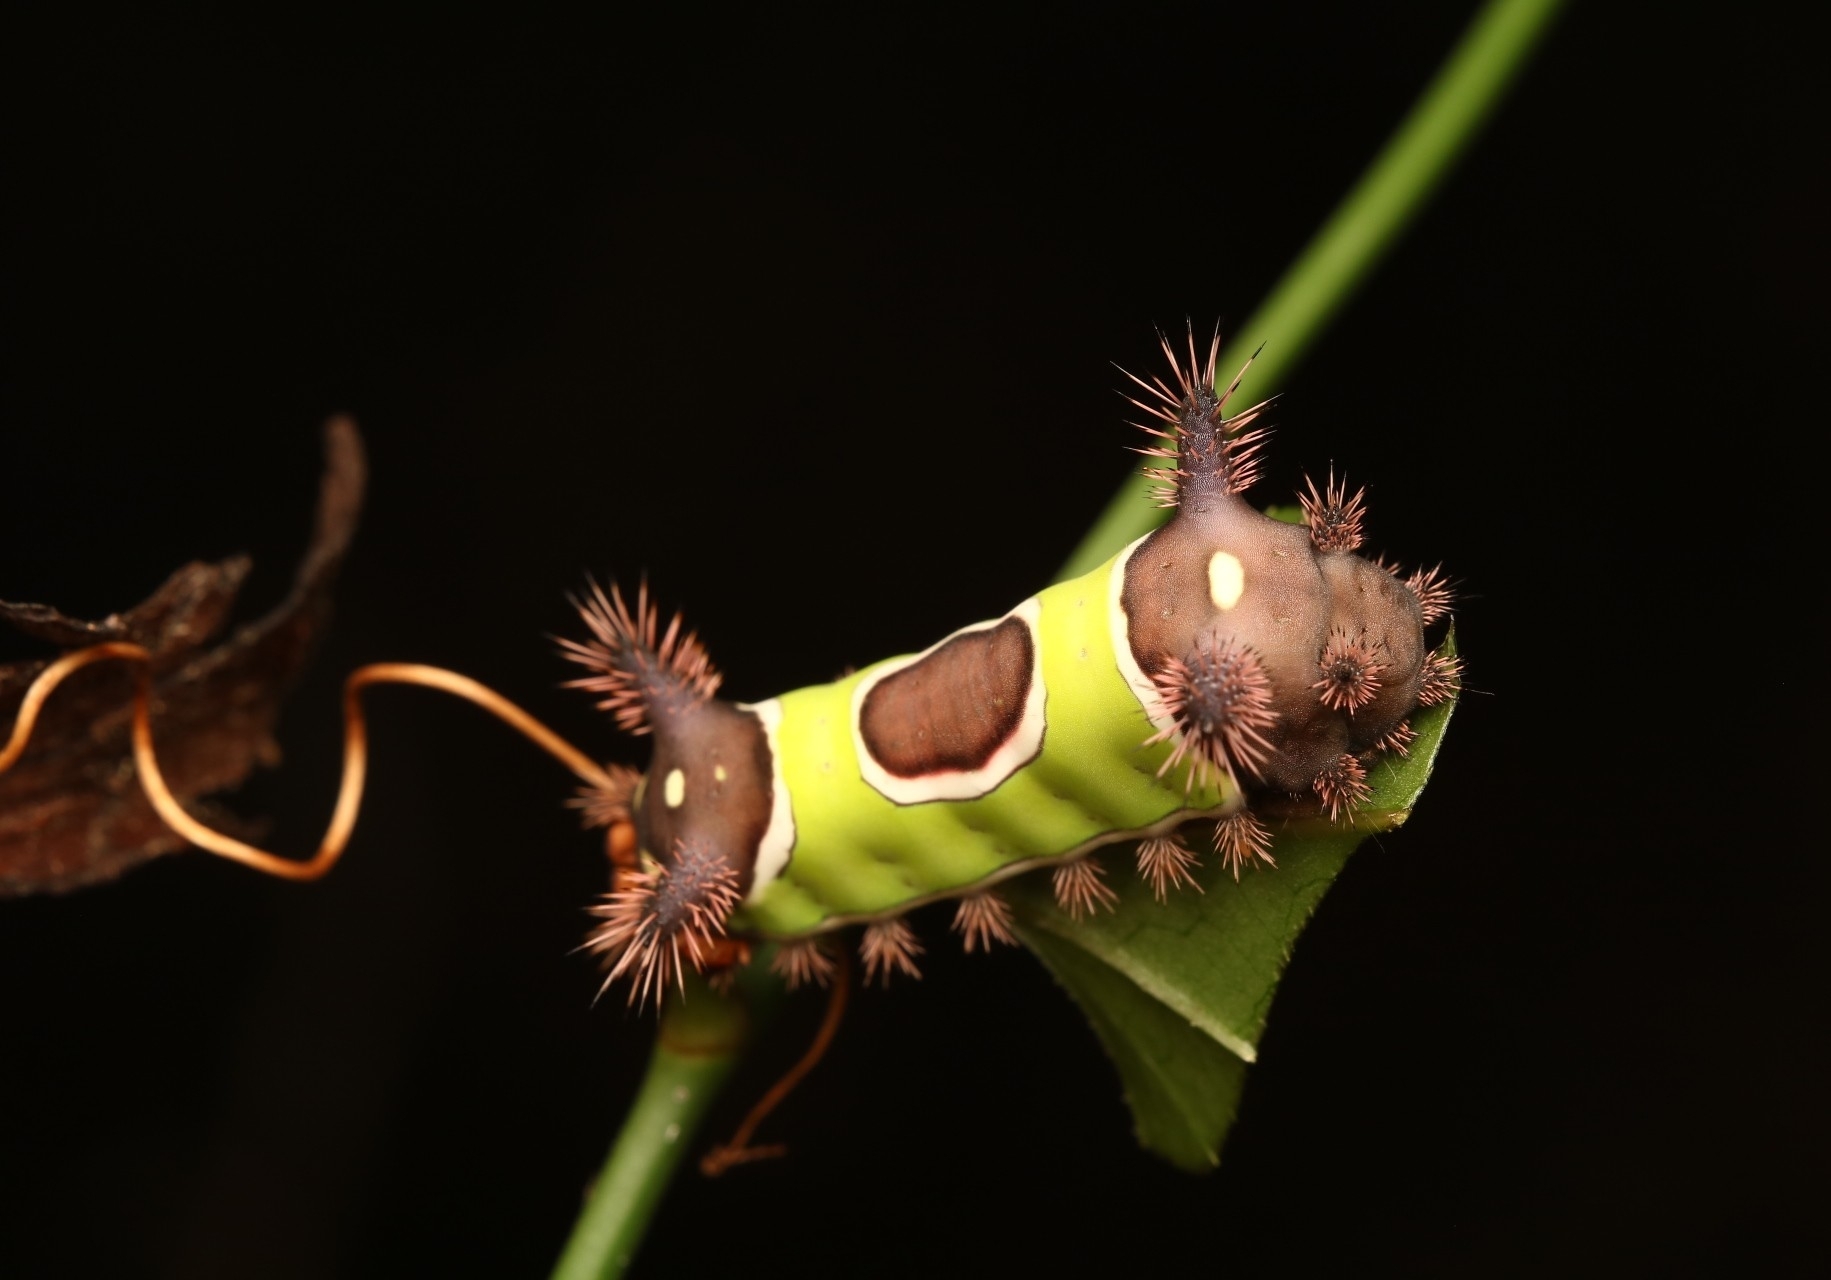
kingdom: Animalia
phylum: Arthropoda
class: Insecta
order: Lepidoptera
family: Limacodidae
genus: Acharia
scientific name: Acharia stimulea
